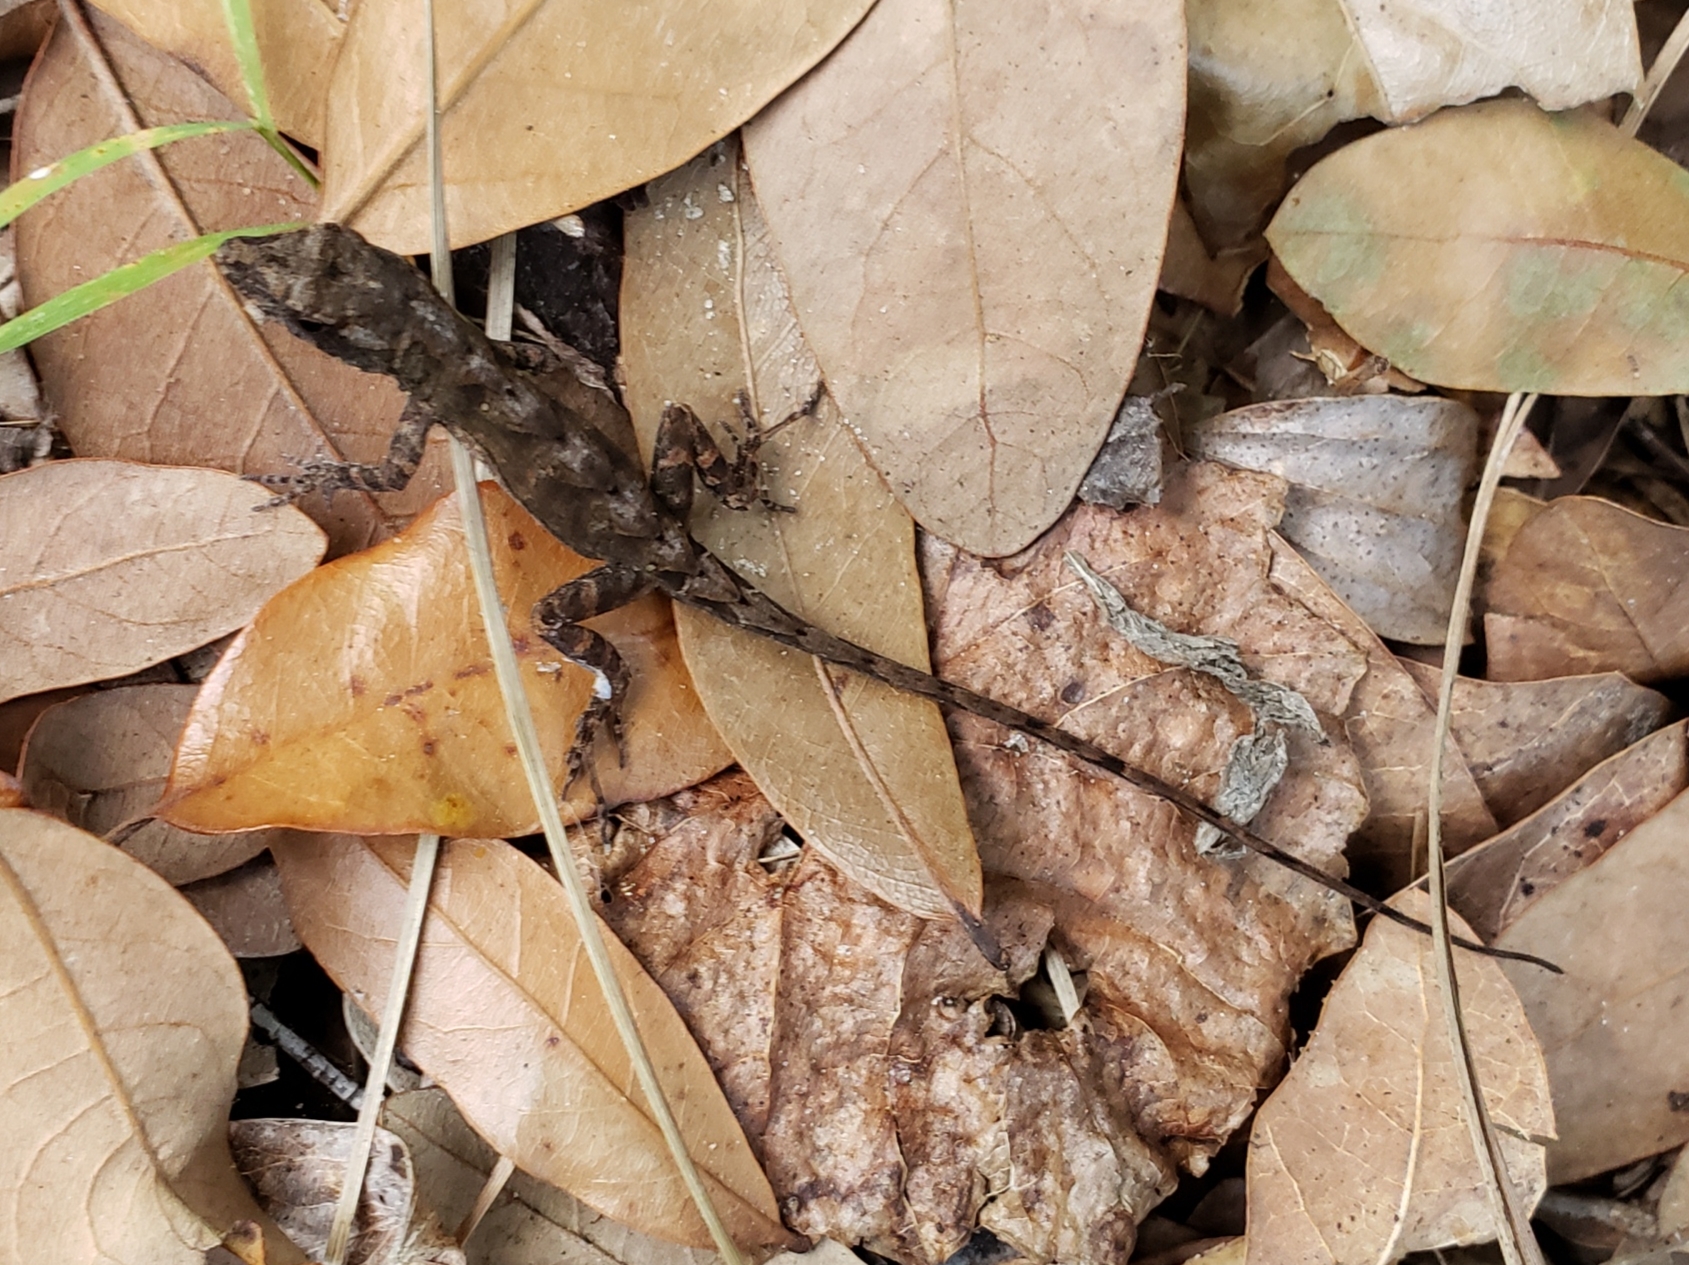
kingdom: Animalia
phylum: Chordata
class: Squamata
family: Dactyloidae
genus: Anolis
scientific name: Anolis sagrei
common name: Brown anole
